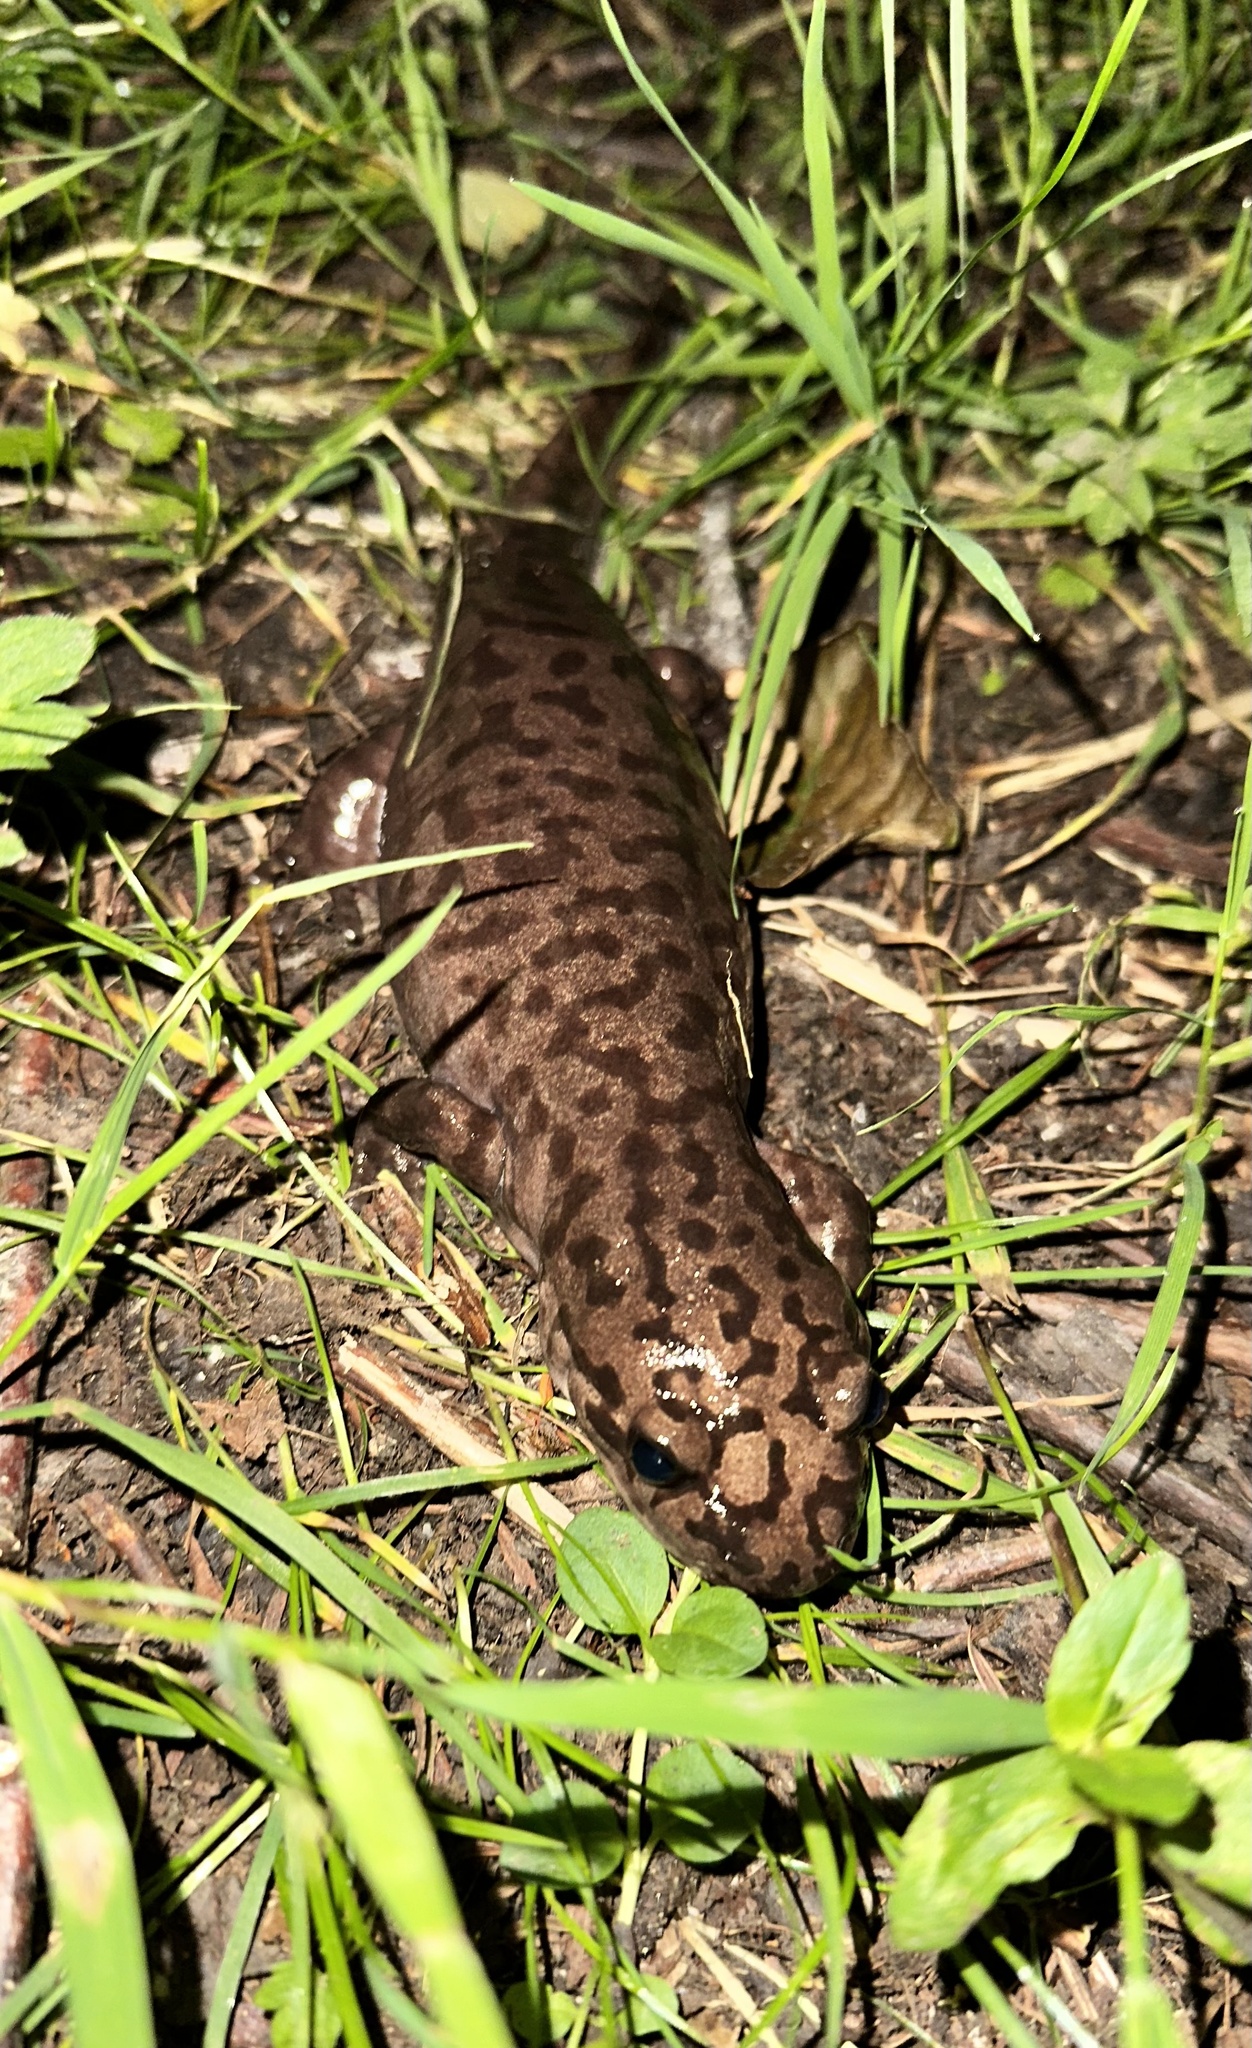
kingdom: Animalia
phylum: Chordata
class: Amphibia
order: Caudata
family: Ambystomatidae
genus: Dicamptodon
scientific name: Dicamptodon tenebrosus
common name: Coastal giant salamander
